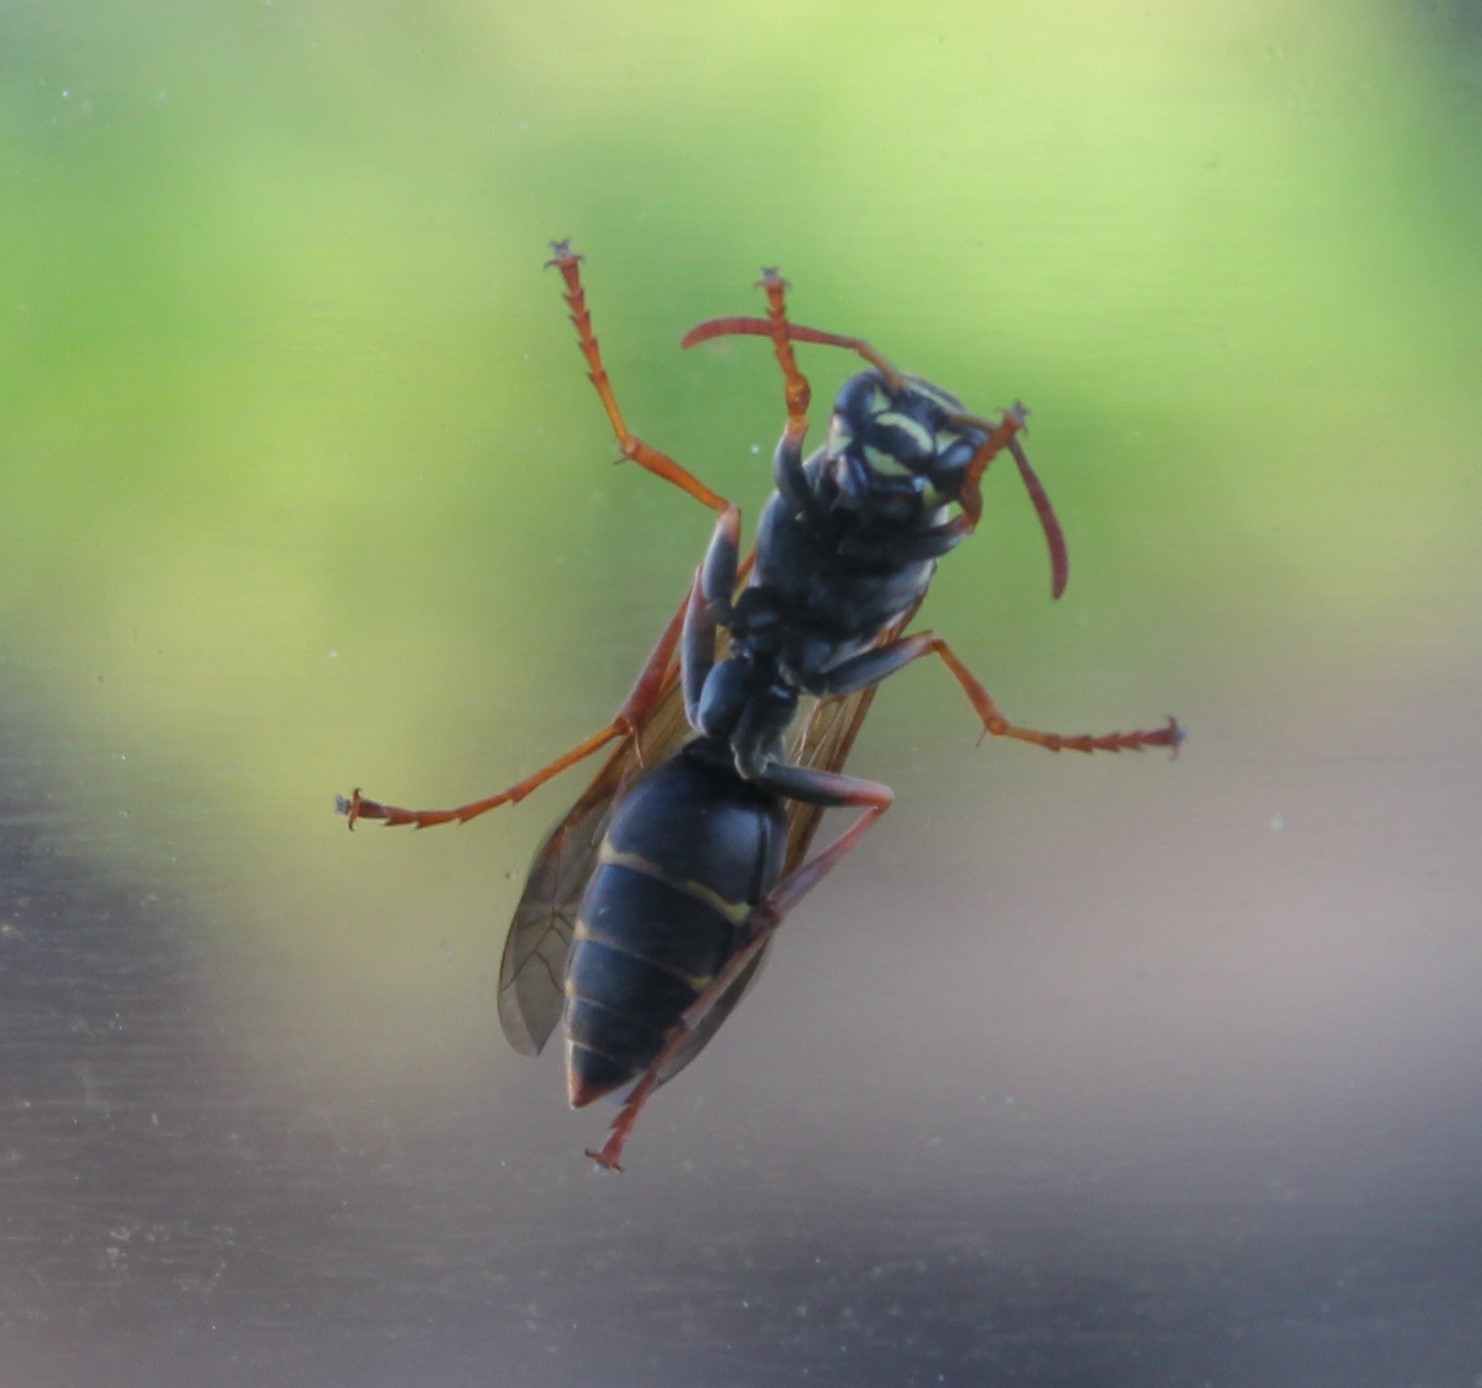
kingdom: Animalia
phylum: Arthropoda
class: Insecta
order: Hymenoptera
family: Eumenidae
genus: Polistes
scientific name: Polistes chinensis
